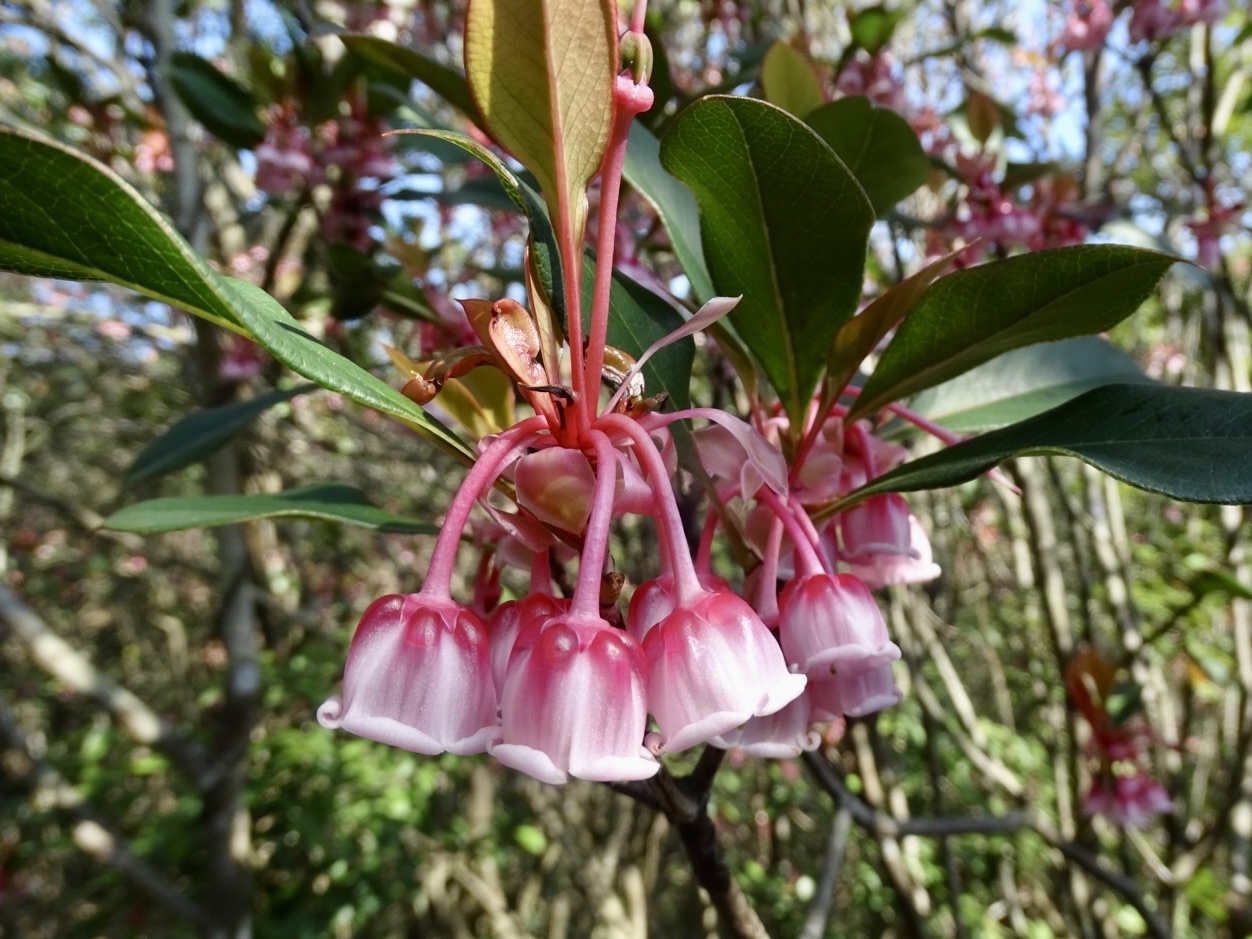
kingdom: Plantae
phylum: Tracheophyta
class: Magnoliopsida
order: Ericales
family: Ericaceae
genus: Enkianthus
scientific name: Enkianthus quinqueflorus
